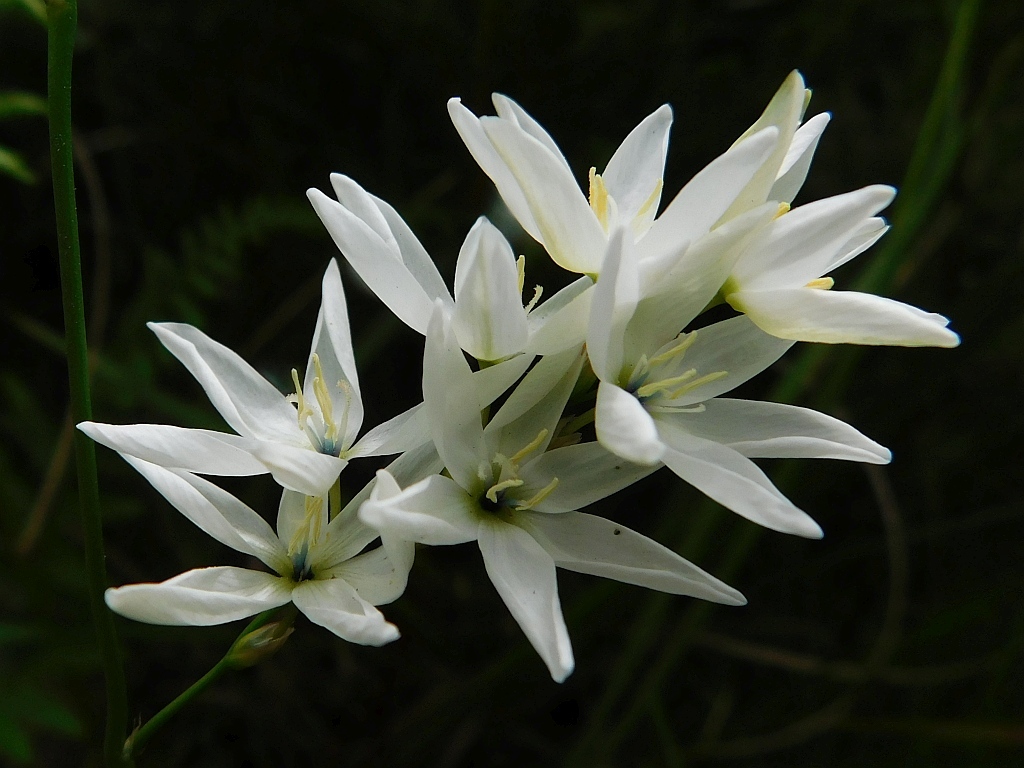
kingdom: Plantae
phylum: Tracheophyta
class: Liliopsida
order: Asparagales
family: Iridaceae
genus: Ixia
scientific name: Ixia polystachya
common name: White-and-yellow-flower cornlily
